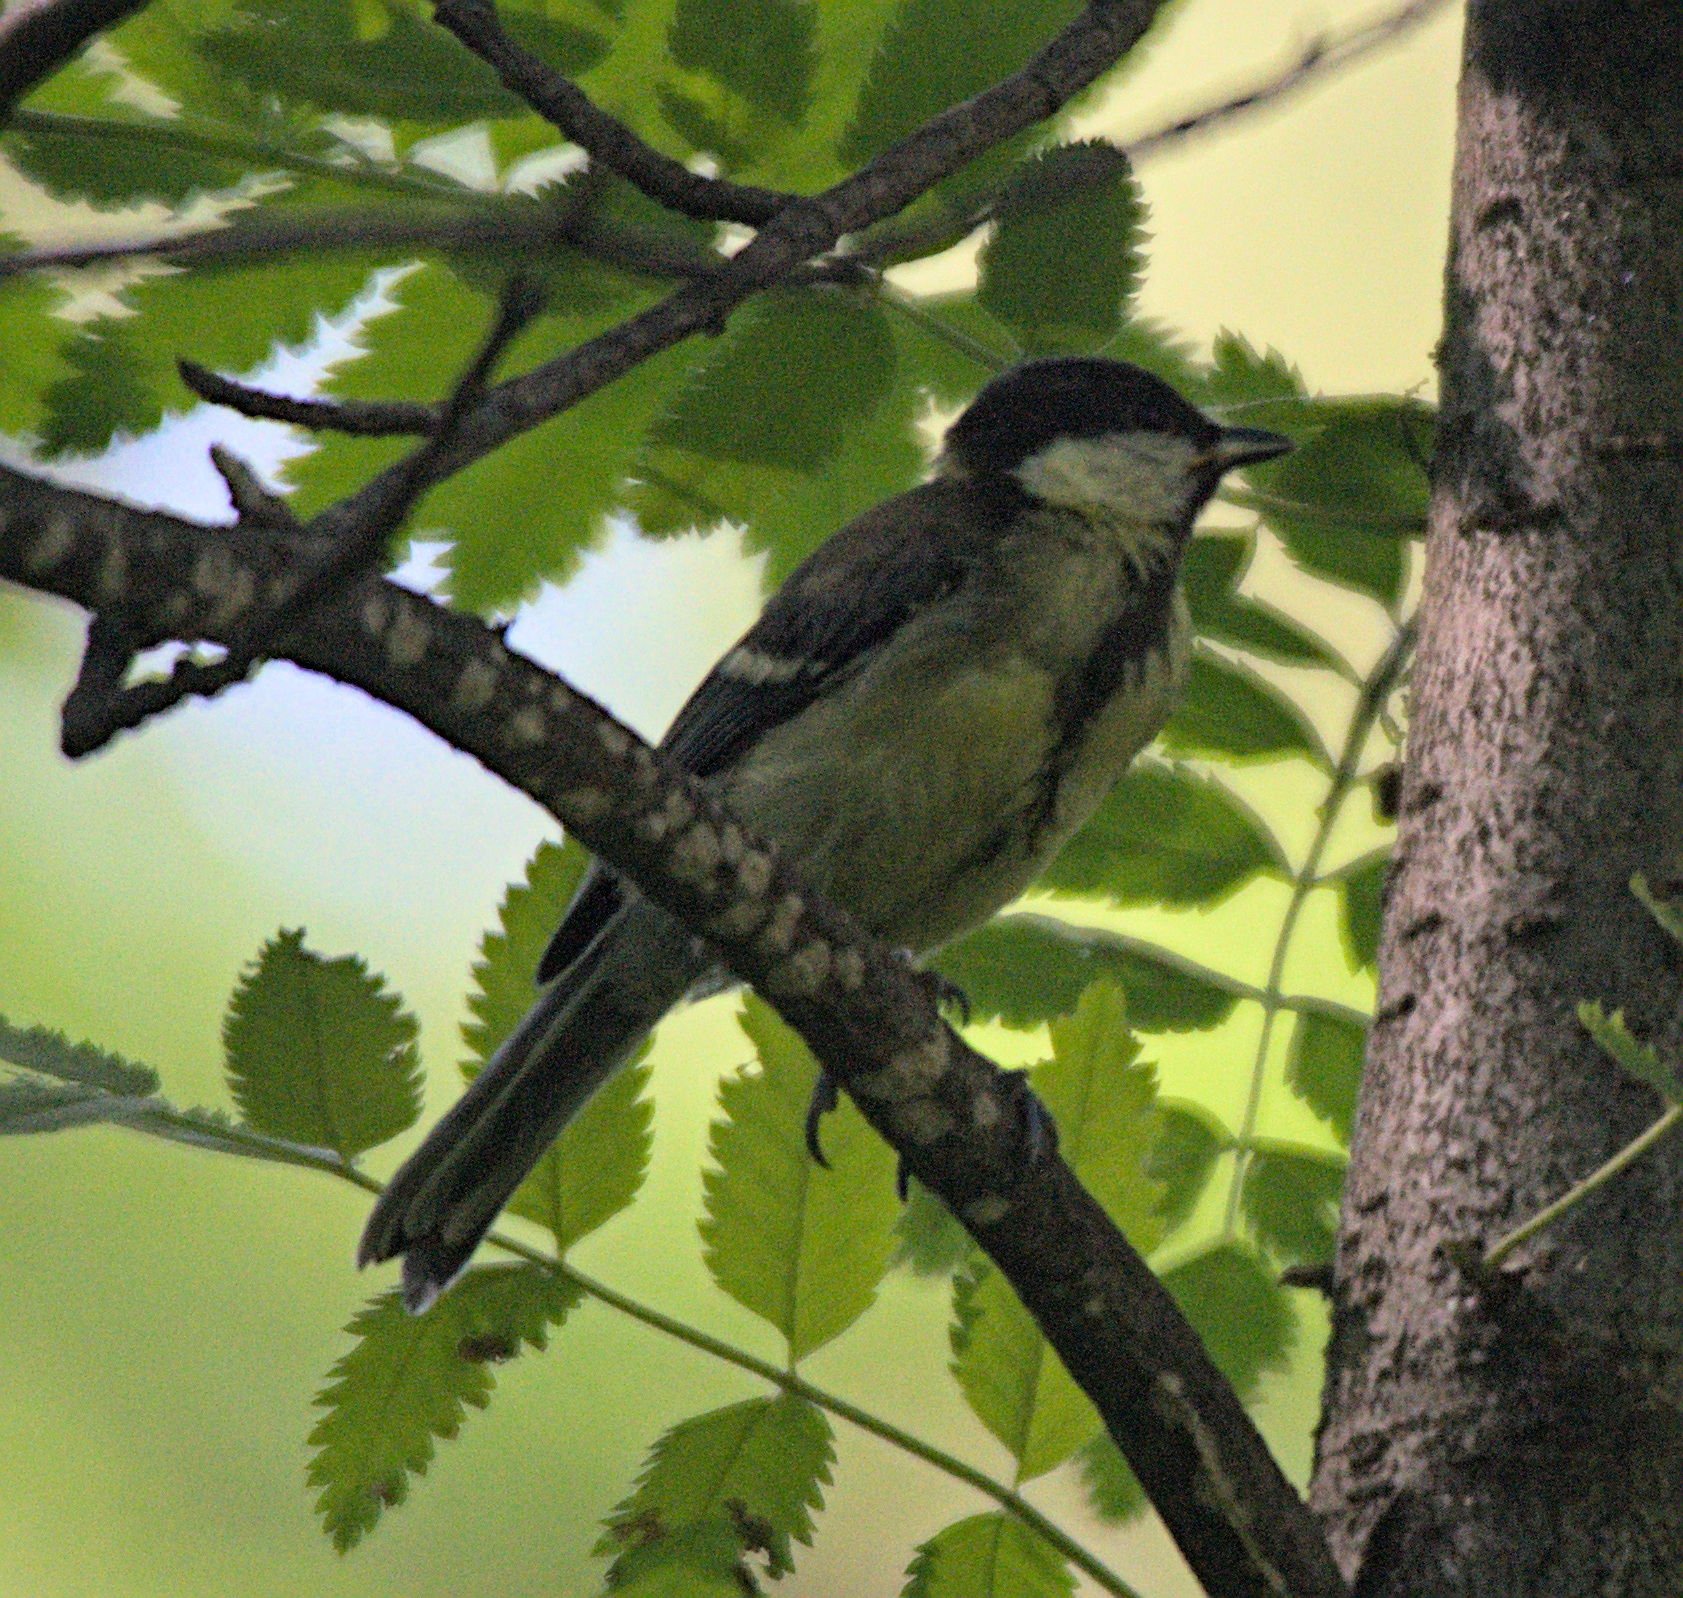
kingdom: Animalia
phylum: Chordata
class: Aves
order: Passeriformes
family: Paridae
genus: Parus
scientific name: Parus major
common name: Great tit
